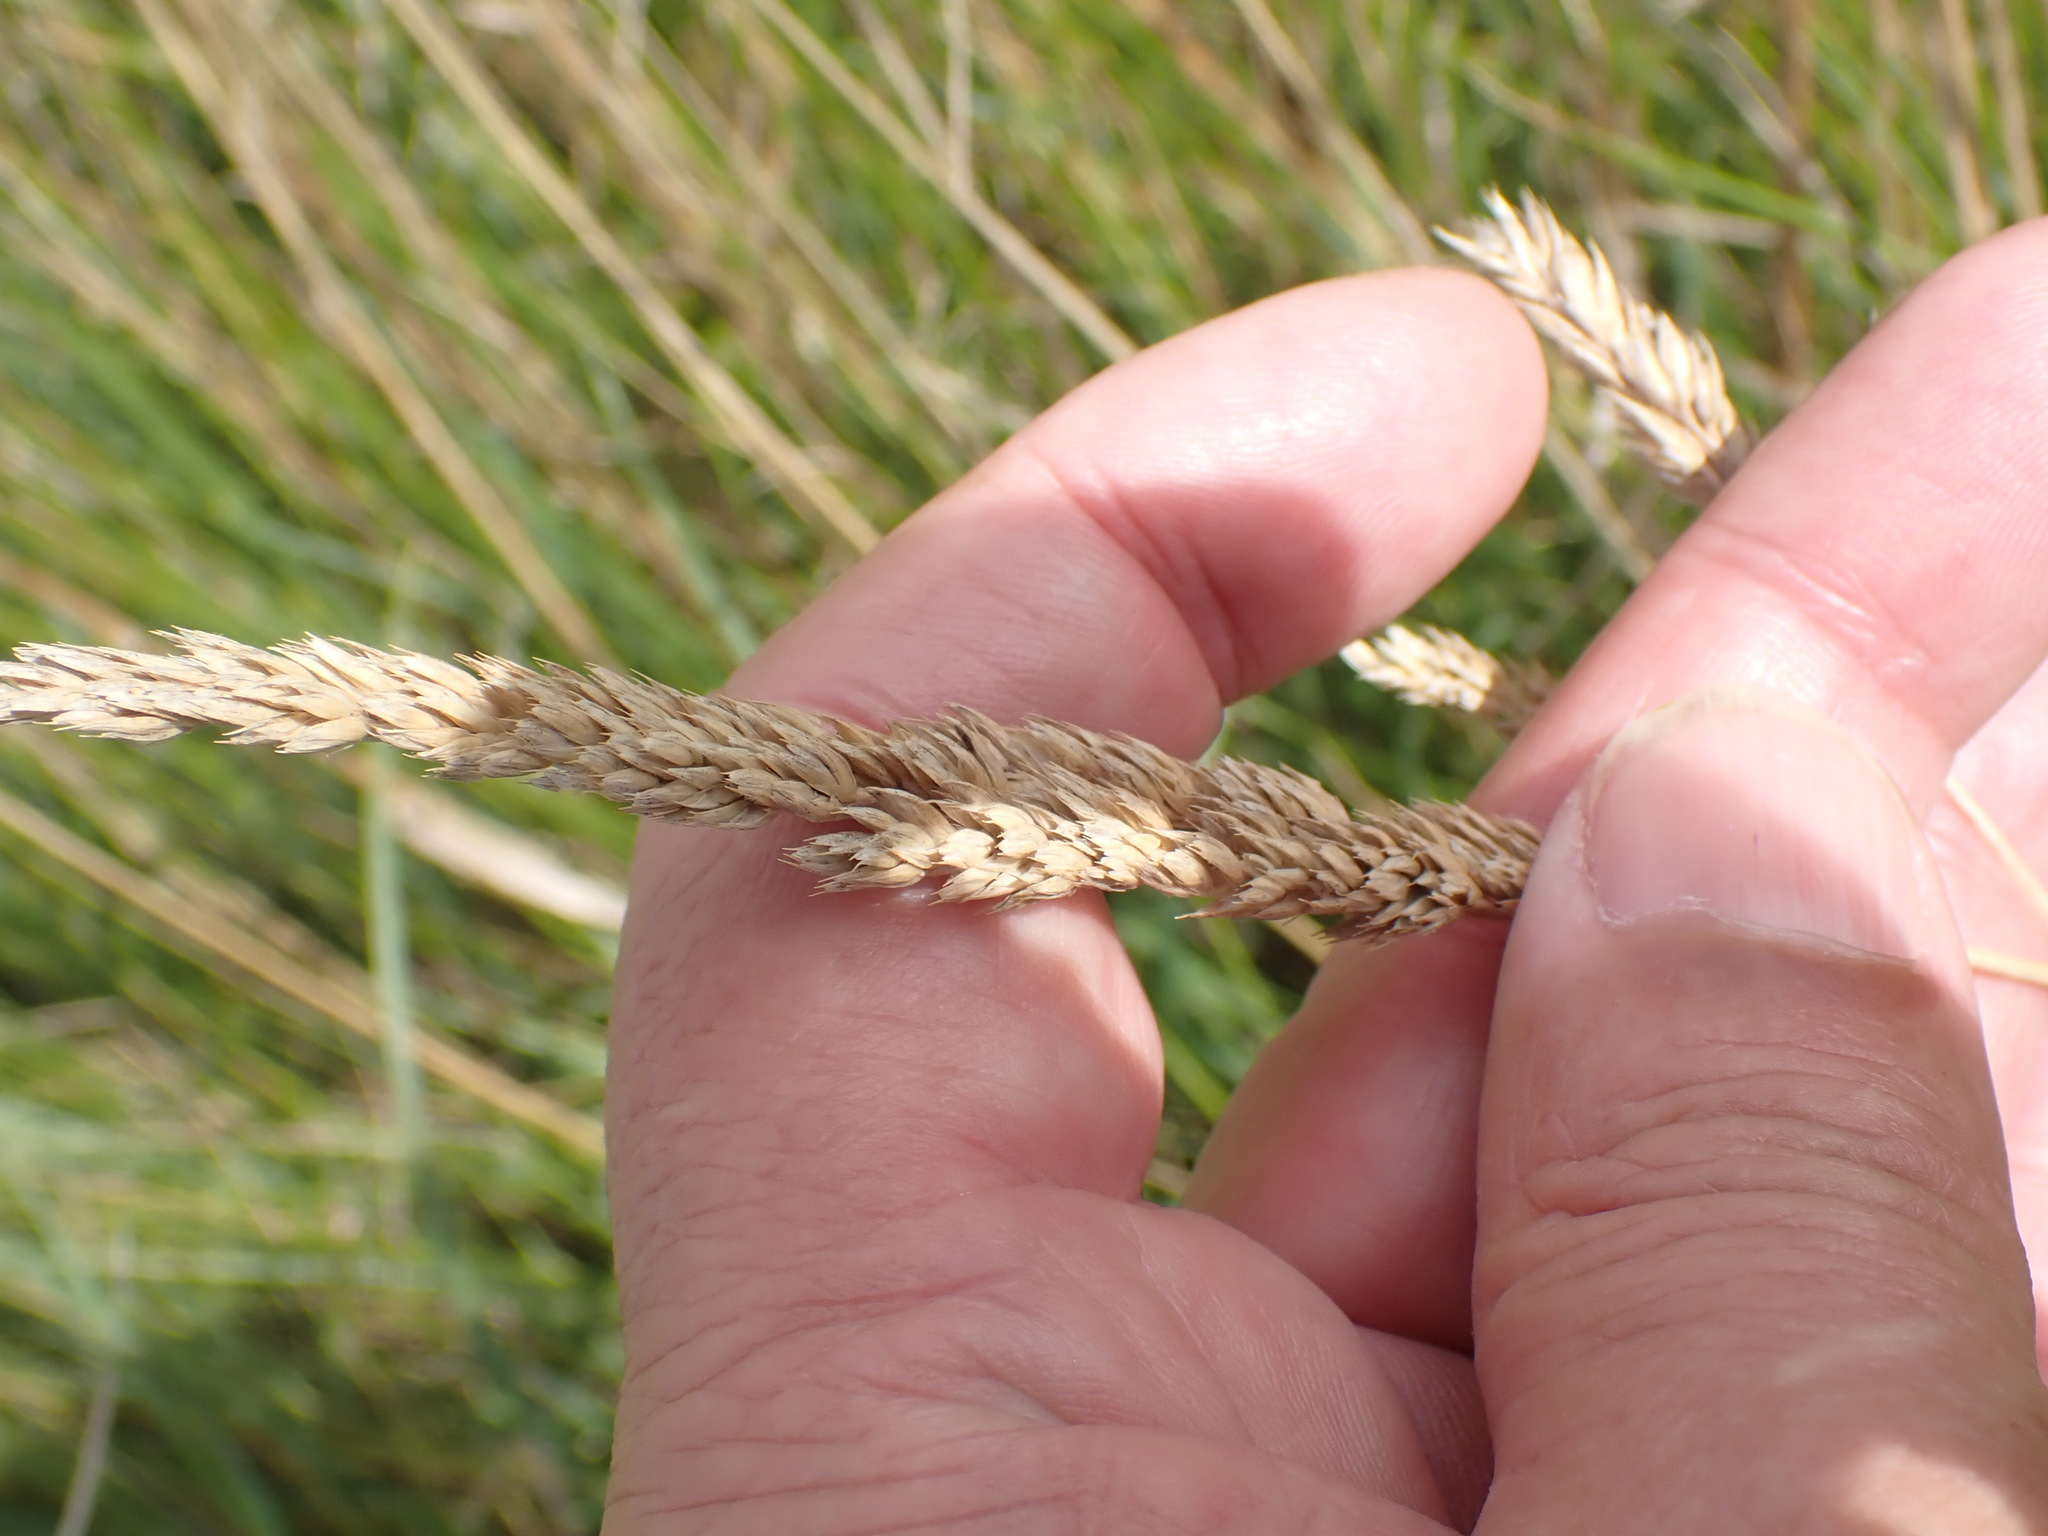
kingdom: Plantae
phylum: Tracheophyta
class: Liliopsida
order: Poales
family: Poaceae
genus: Dactylis
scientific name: Dactylis glomerata
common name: Orchardgrass
